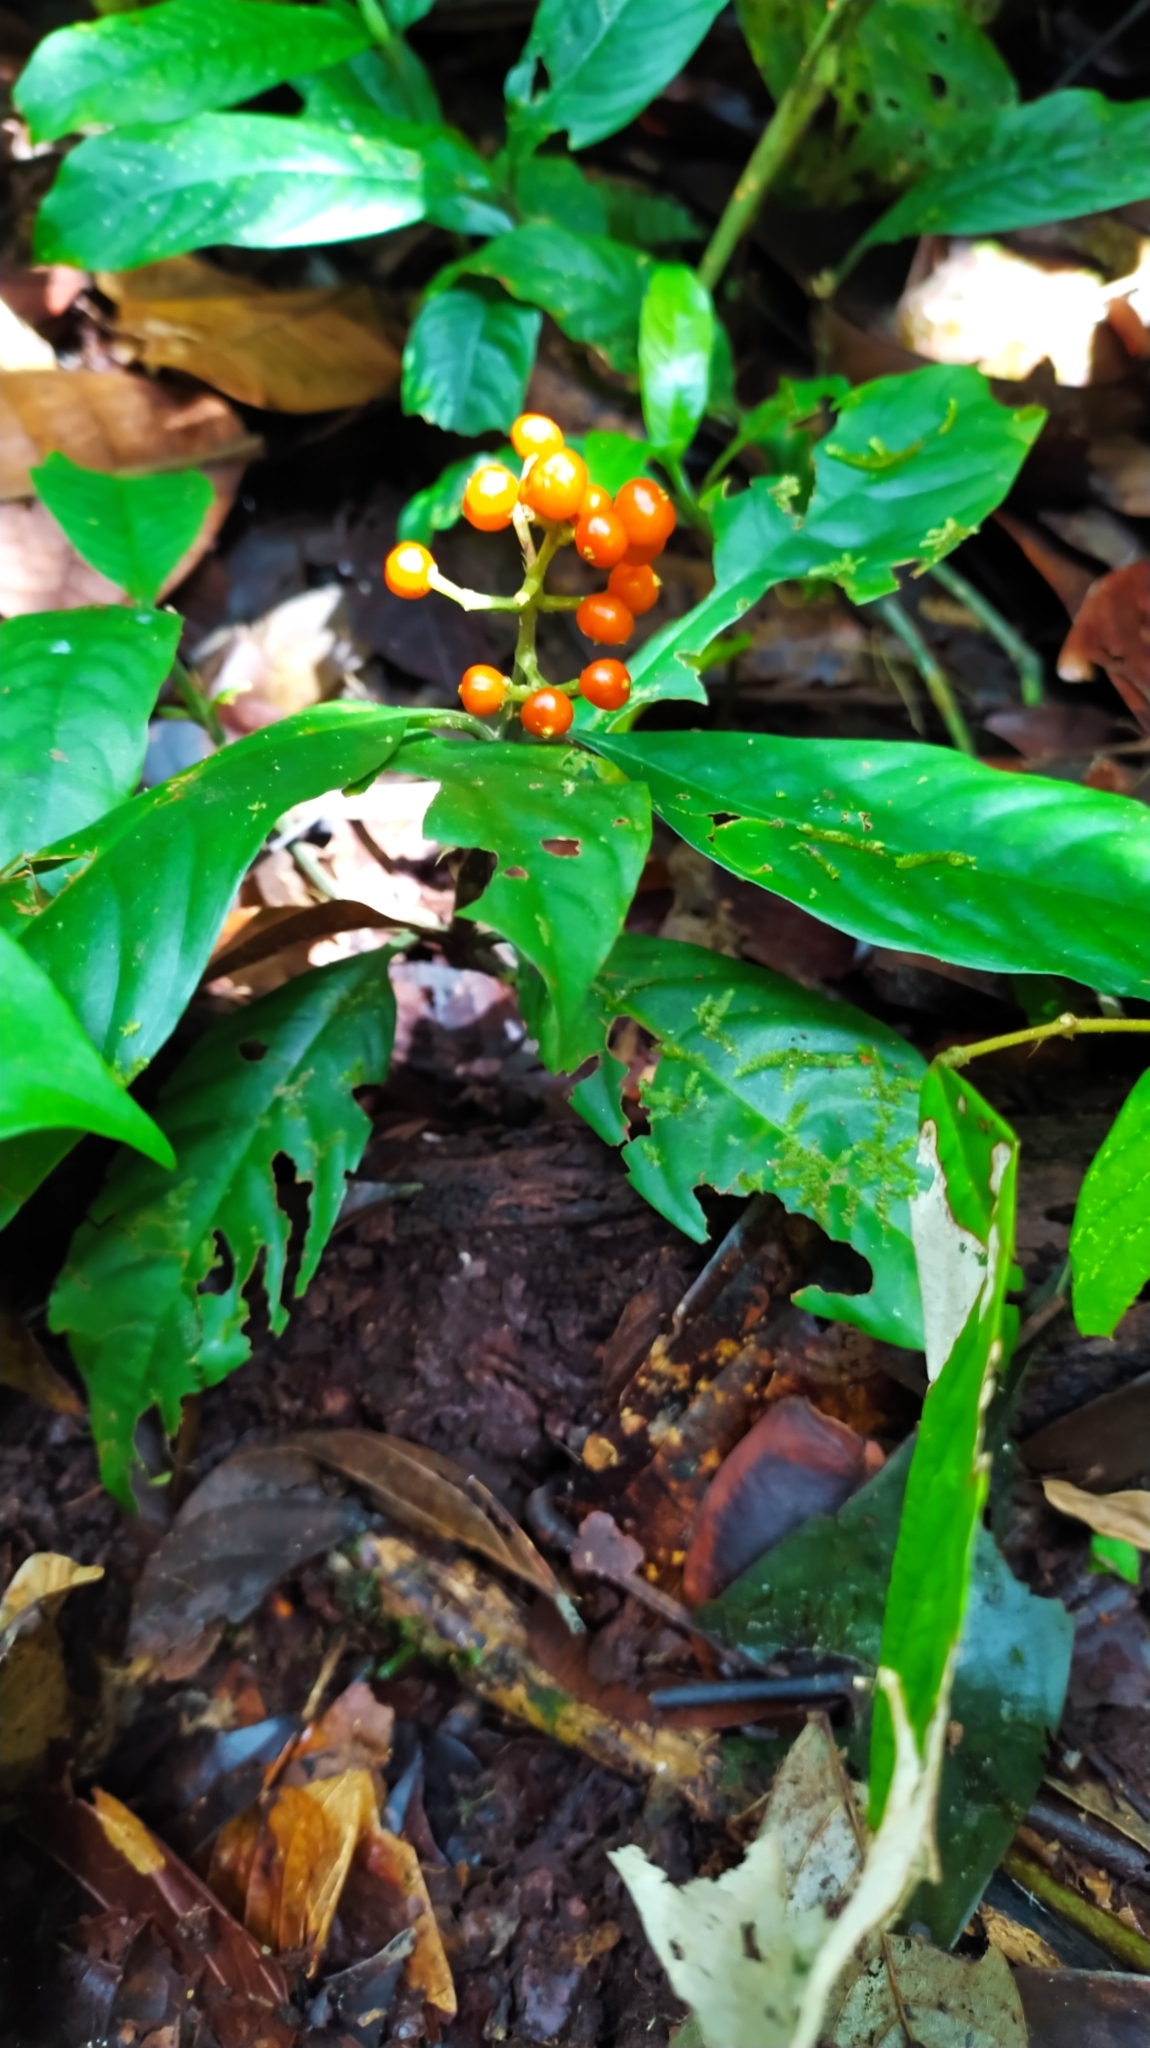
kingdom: Plantae
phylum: Tracheophyta
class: Magnoliopsida
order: Gentianales
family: Rubiaceae
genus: Palicourea
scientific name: Palicourea racemosa
